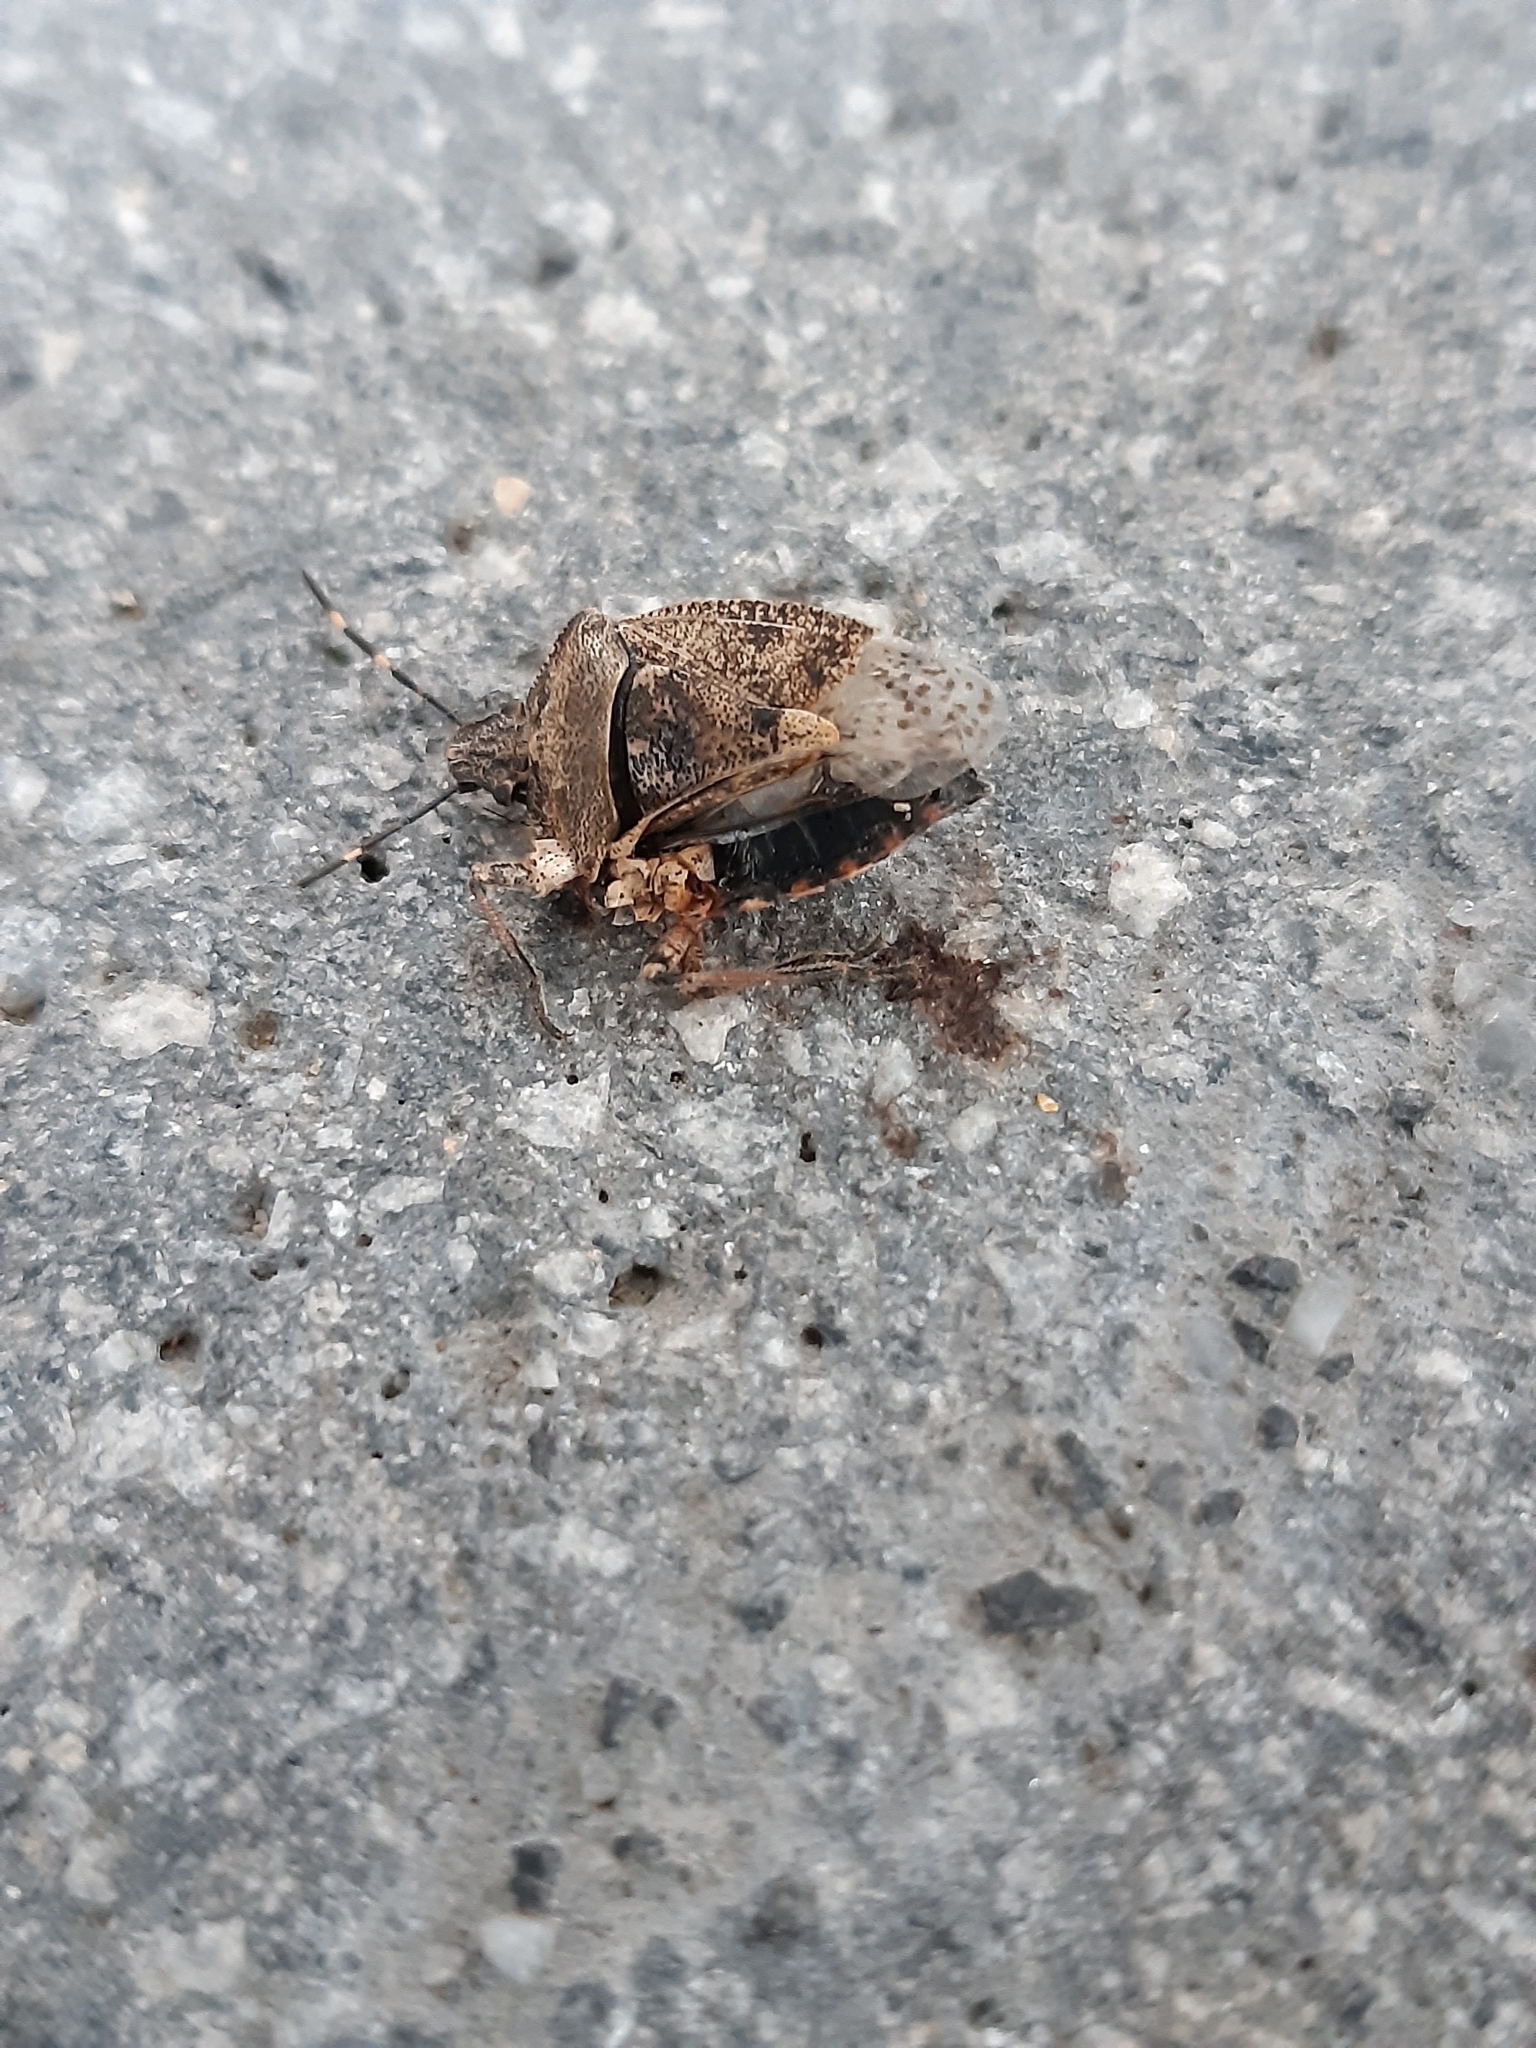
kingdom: Animalia
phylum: Arthropoda
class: Insecta
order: Hemiptera
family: Pentatomidae
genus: Rhaphigaster
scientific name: Rhaphigaster nebulosa
